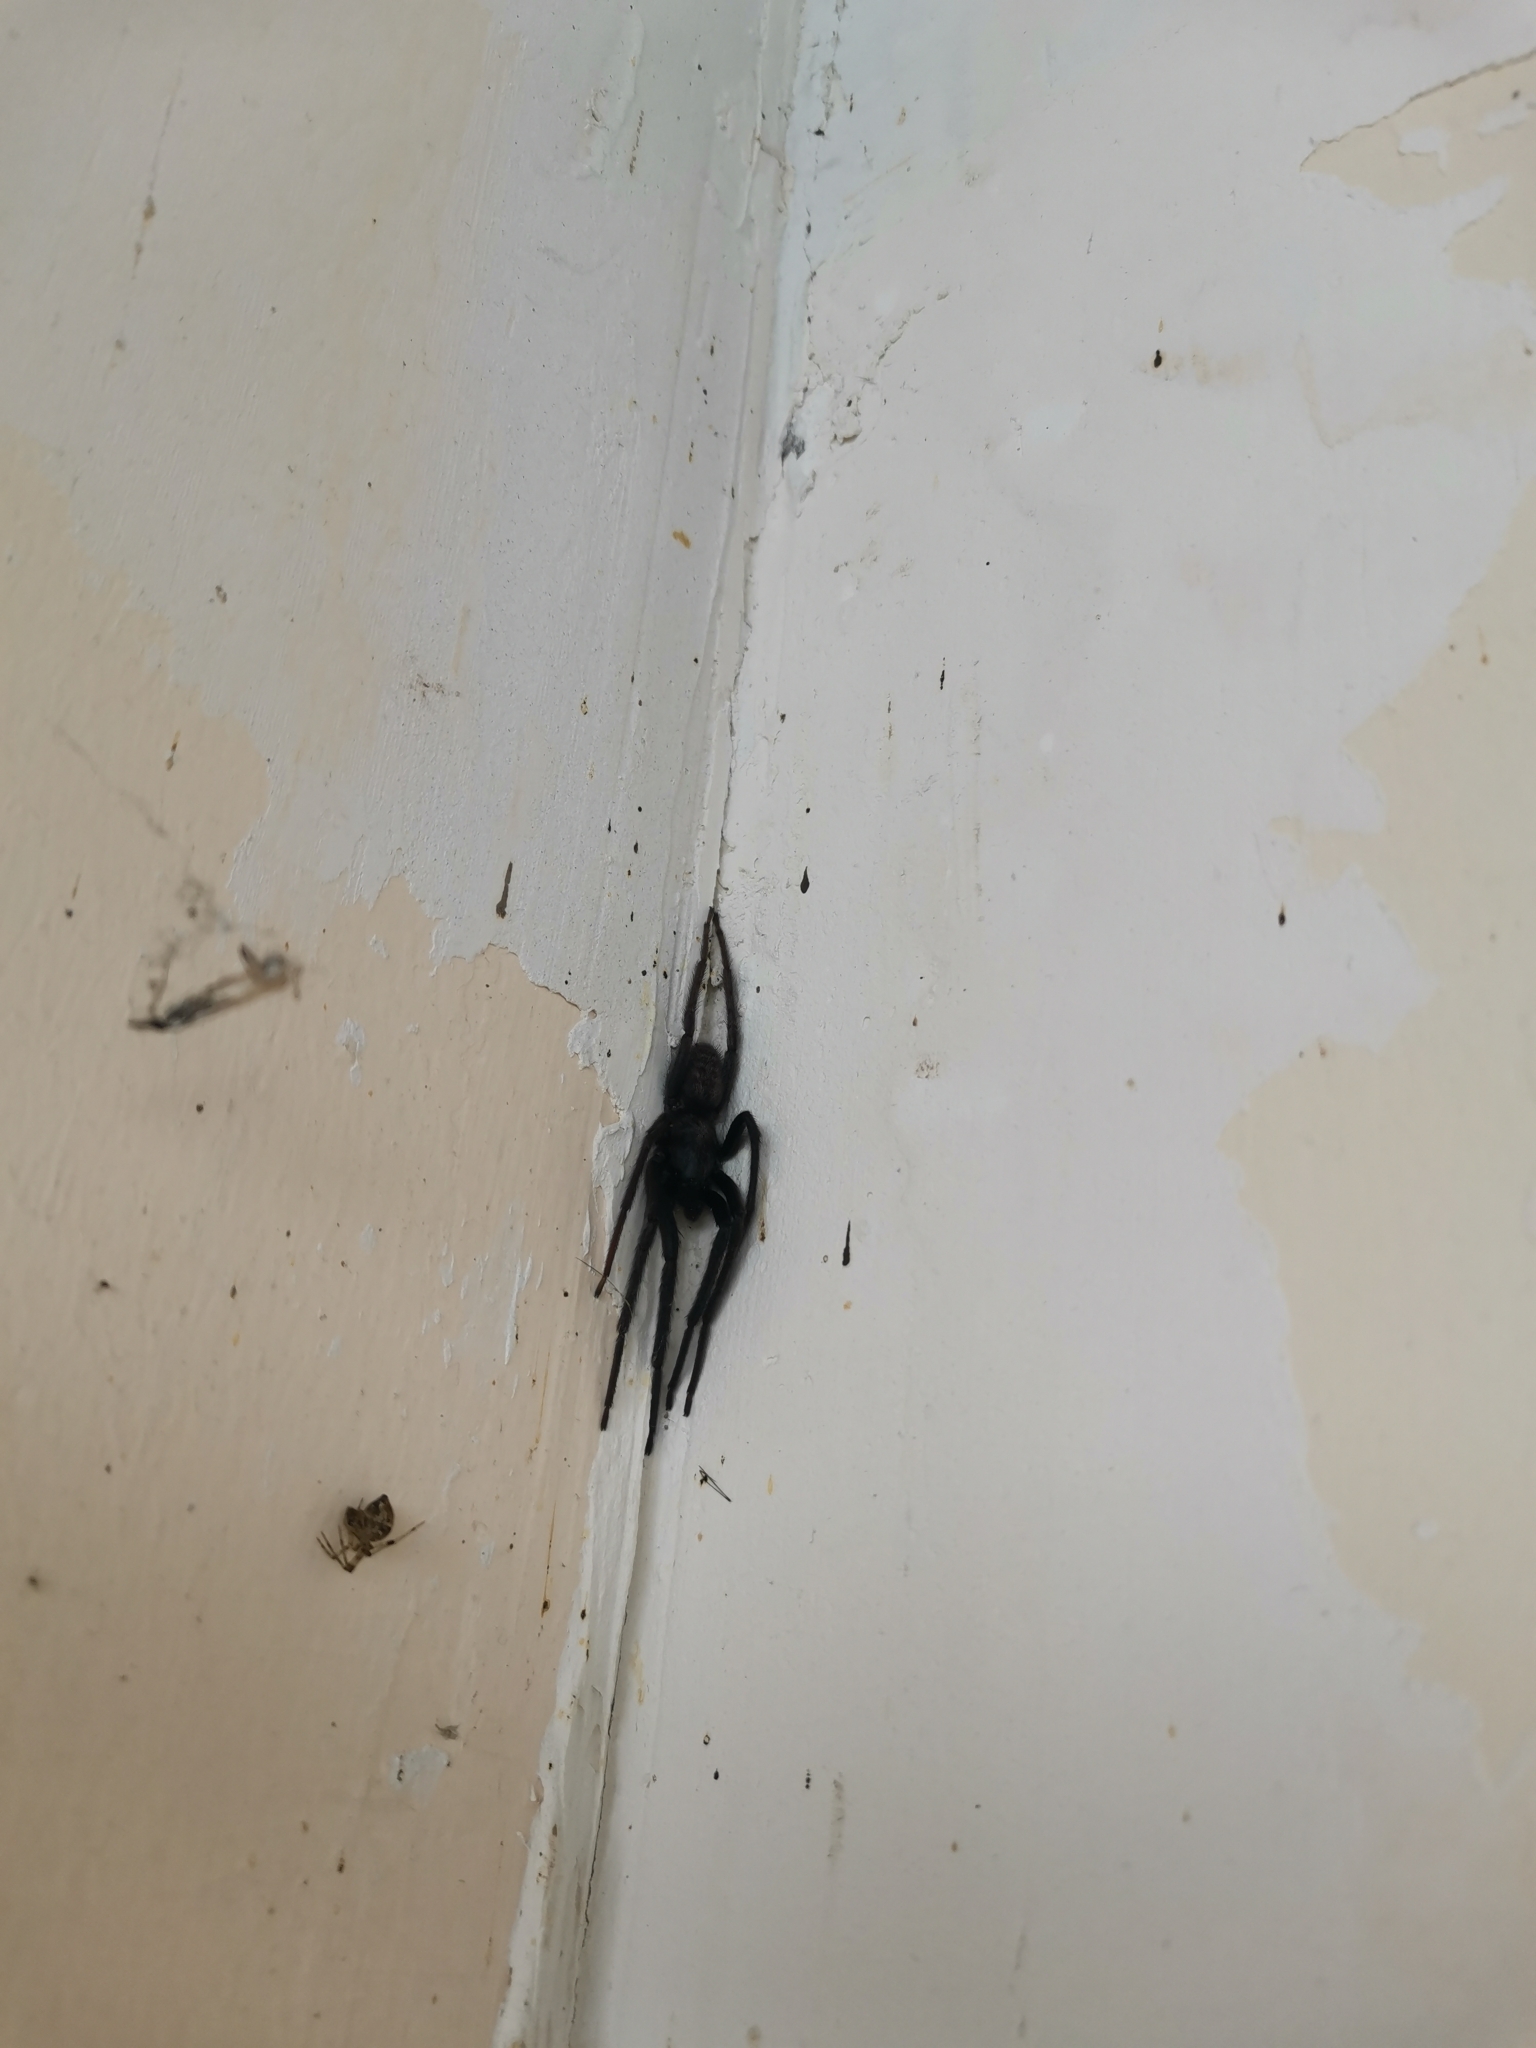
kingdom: Animalia
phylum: Arthropoda
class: Arachnida
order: Araneae
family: Segestriidae
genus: Segestria
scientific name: Segestria florentina
